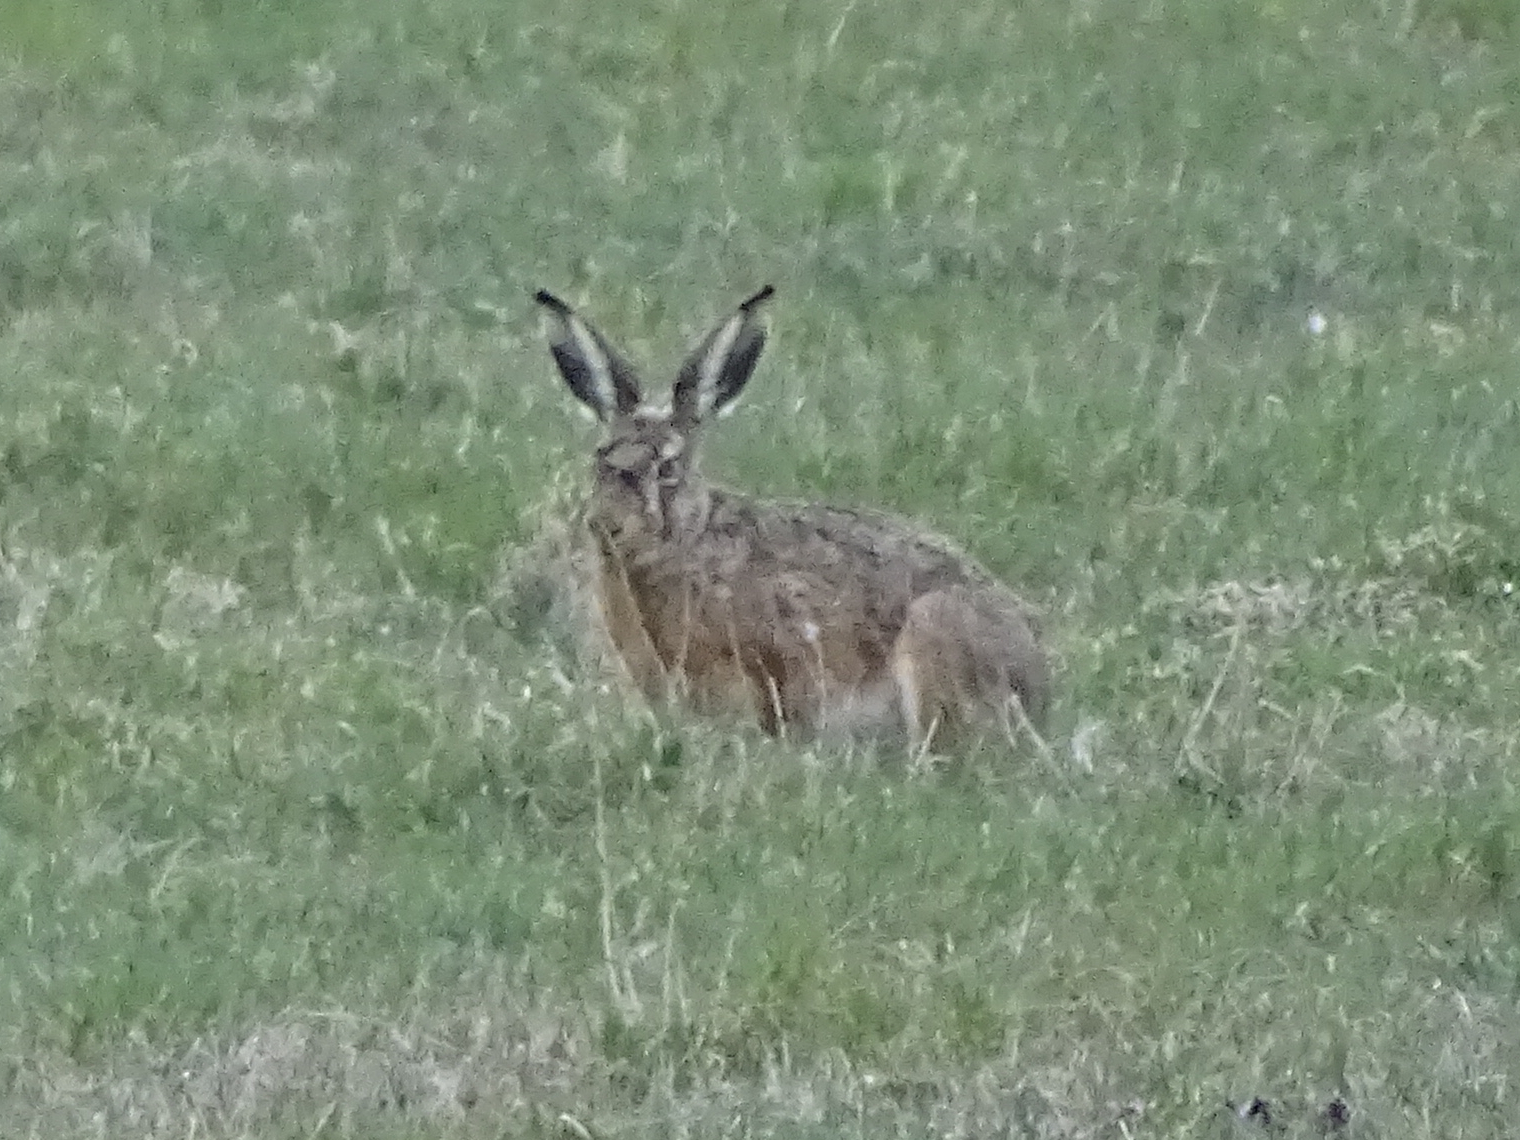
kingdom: Animalia
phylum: Chordata
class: Mammalia
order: Lagomorpha
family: Leporidae
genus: Lepus
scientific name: Lepus europaeus
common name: European hare
